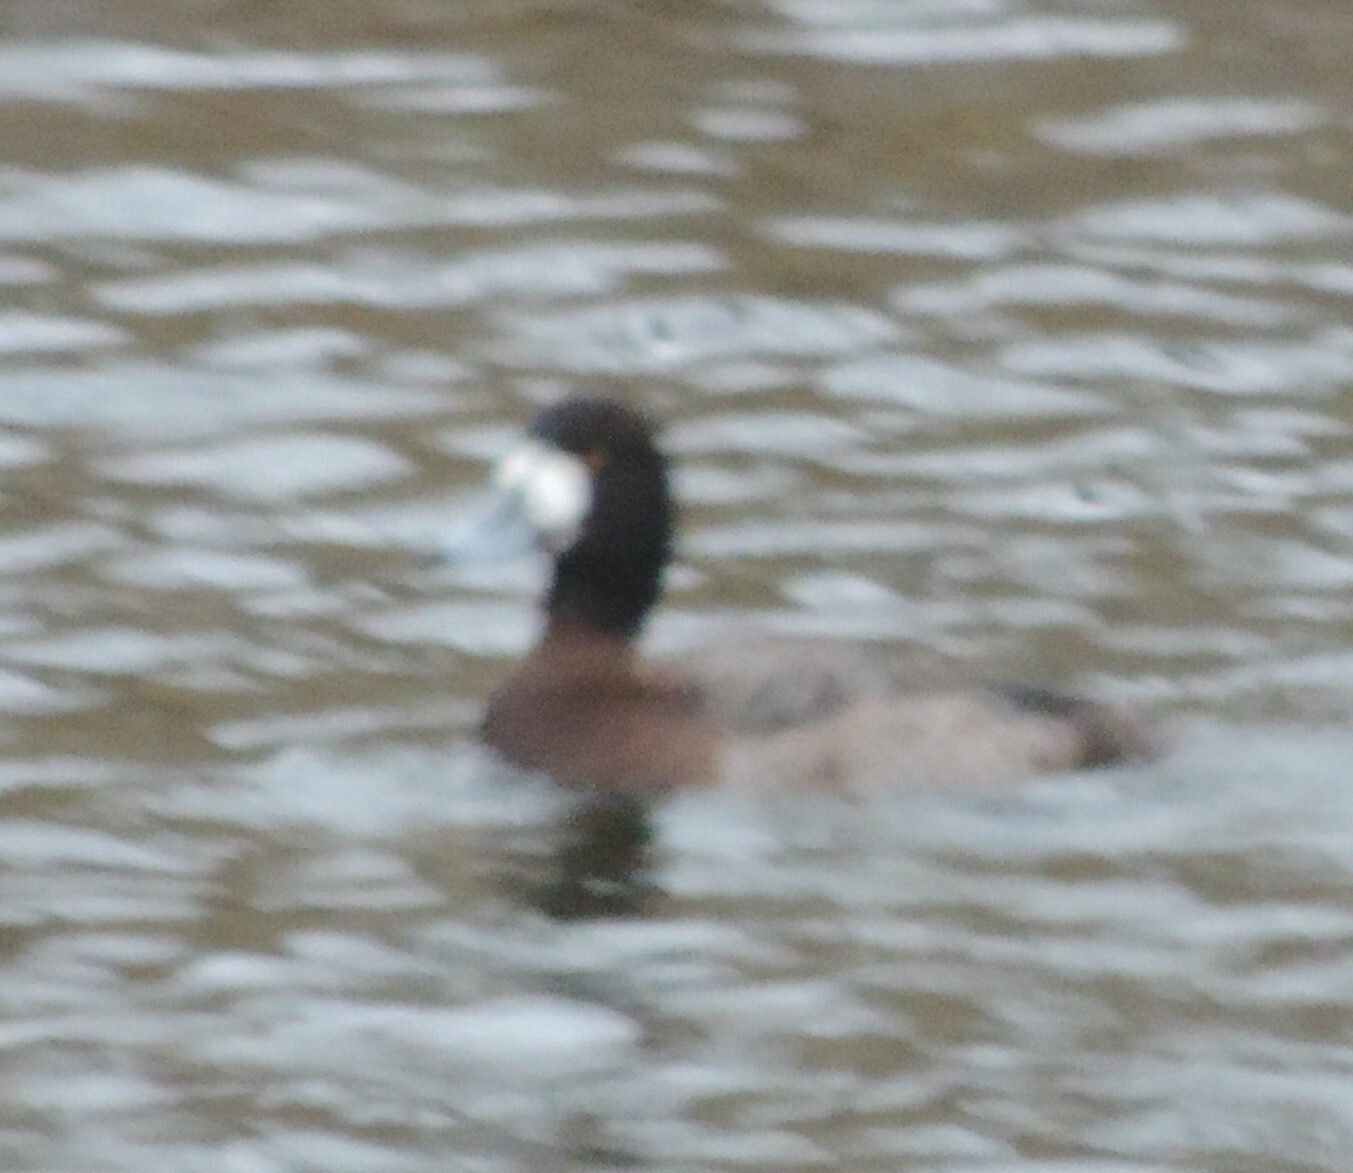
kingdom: Animalia
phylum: Chordata
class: Aves
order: Anseriformes
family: Anatidae
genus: Aythya
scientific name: Aythya marila
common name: Greater scaup
